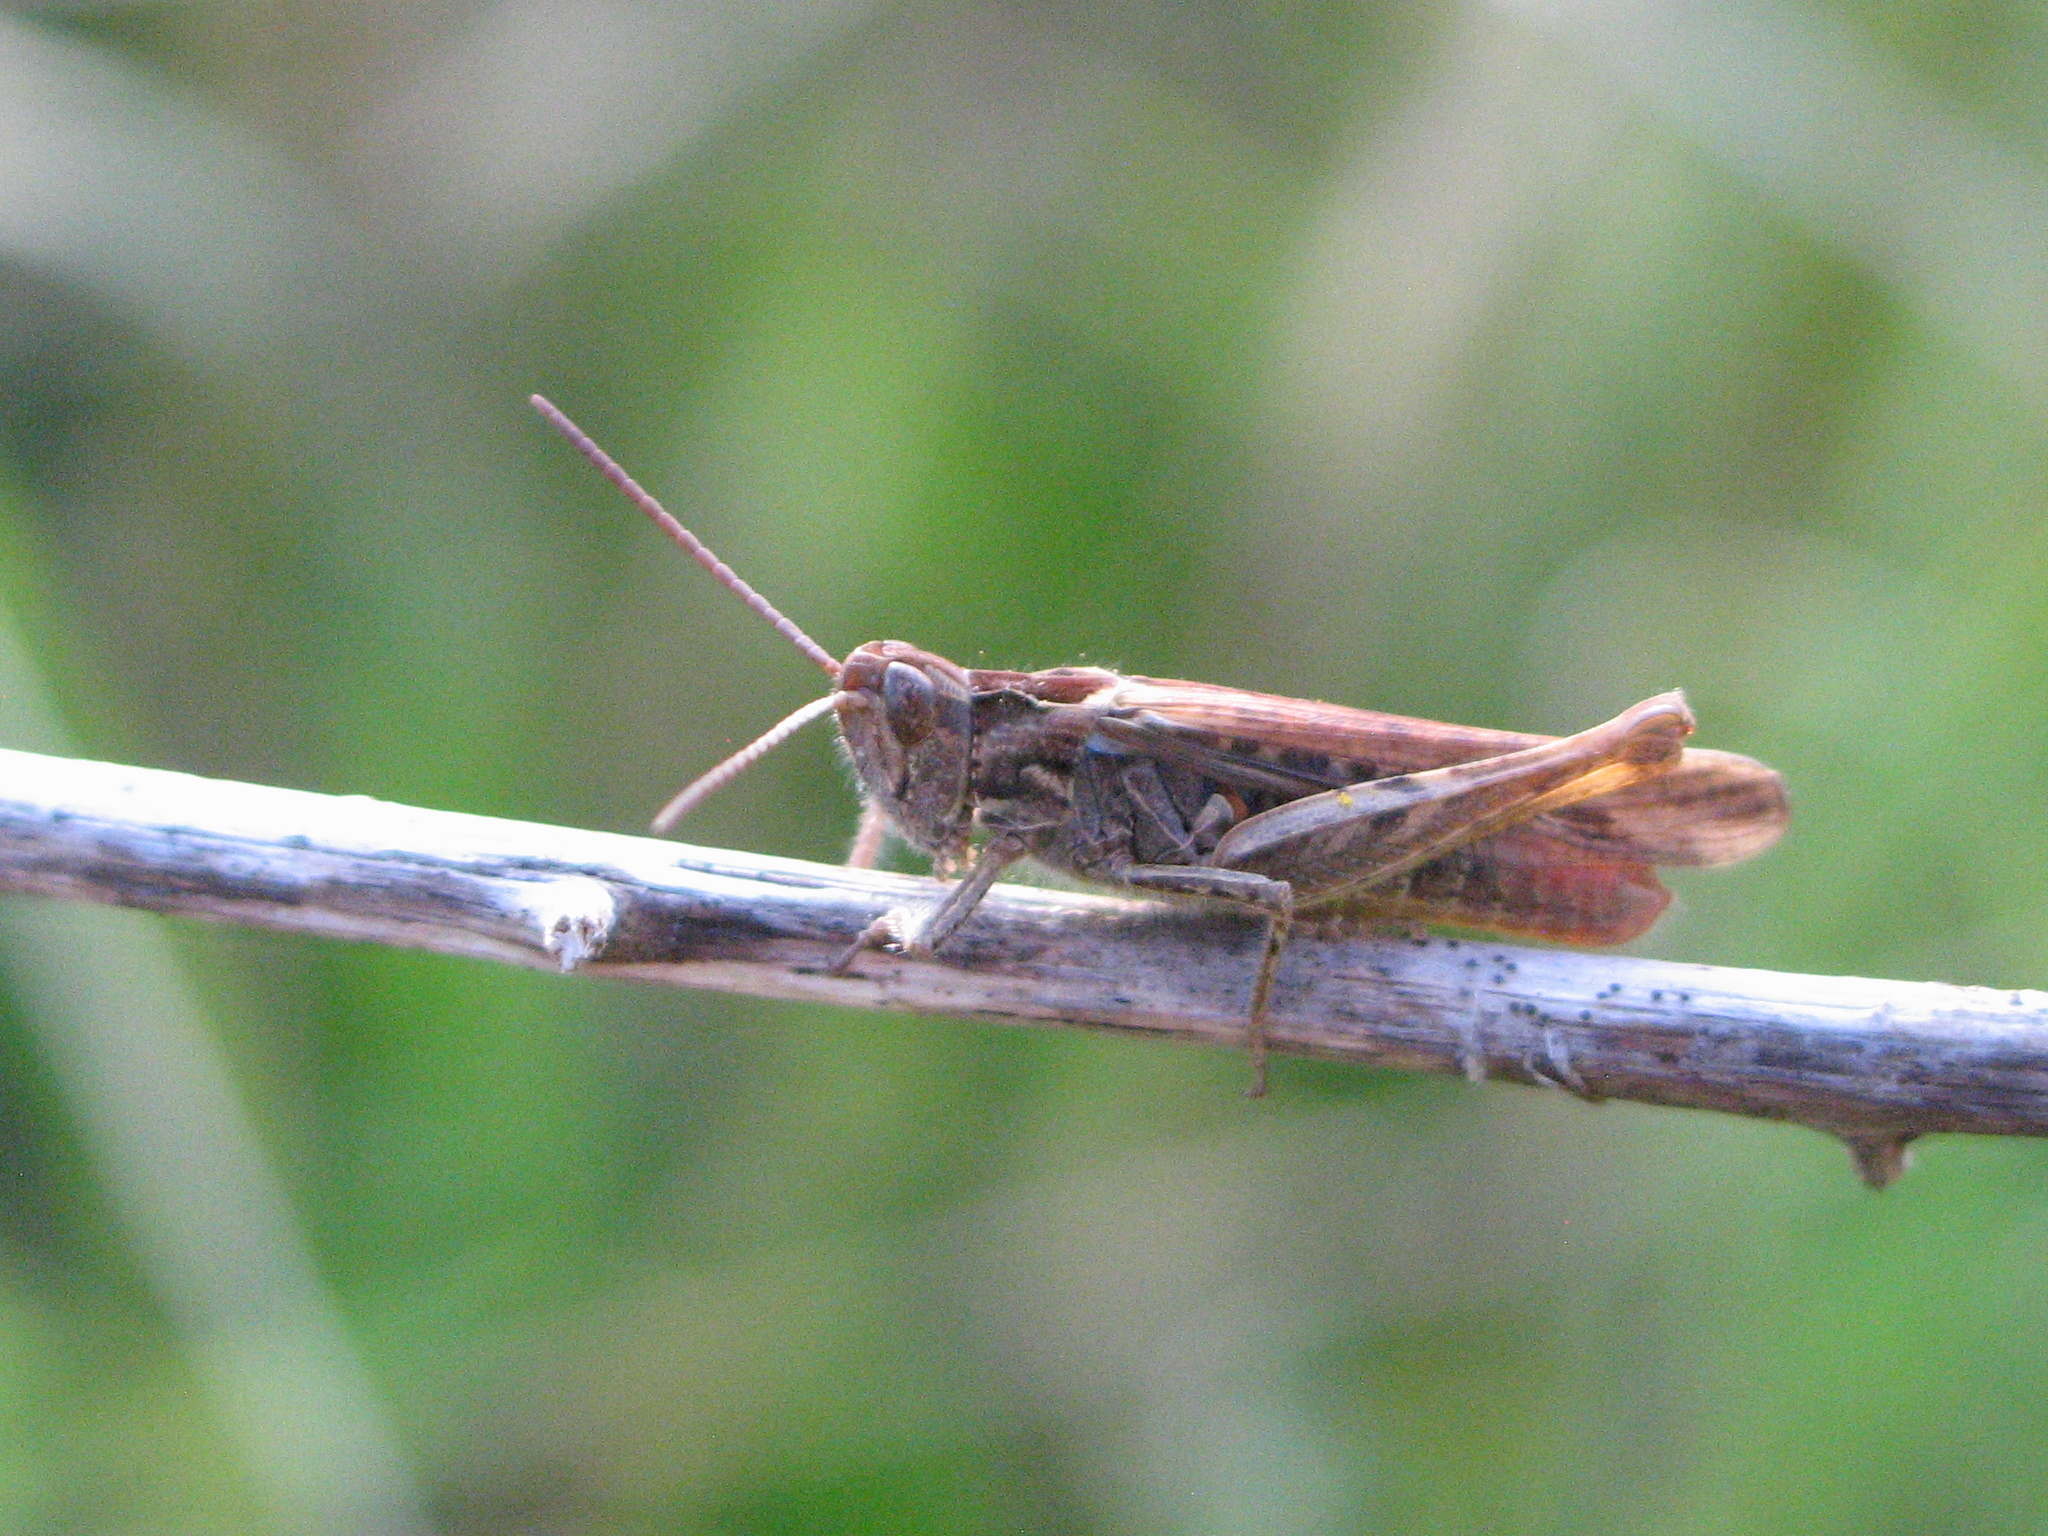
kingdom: Animalia
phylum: Arthropoda
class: Insecta
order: Orthoptera
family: Acrididae
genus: Chorthippus
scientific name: Chorthippus brunneus
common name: Field grasshopper
